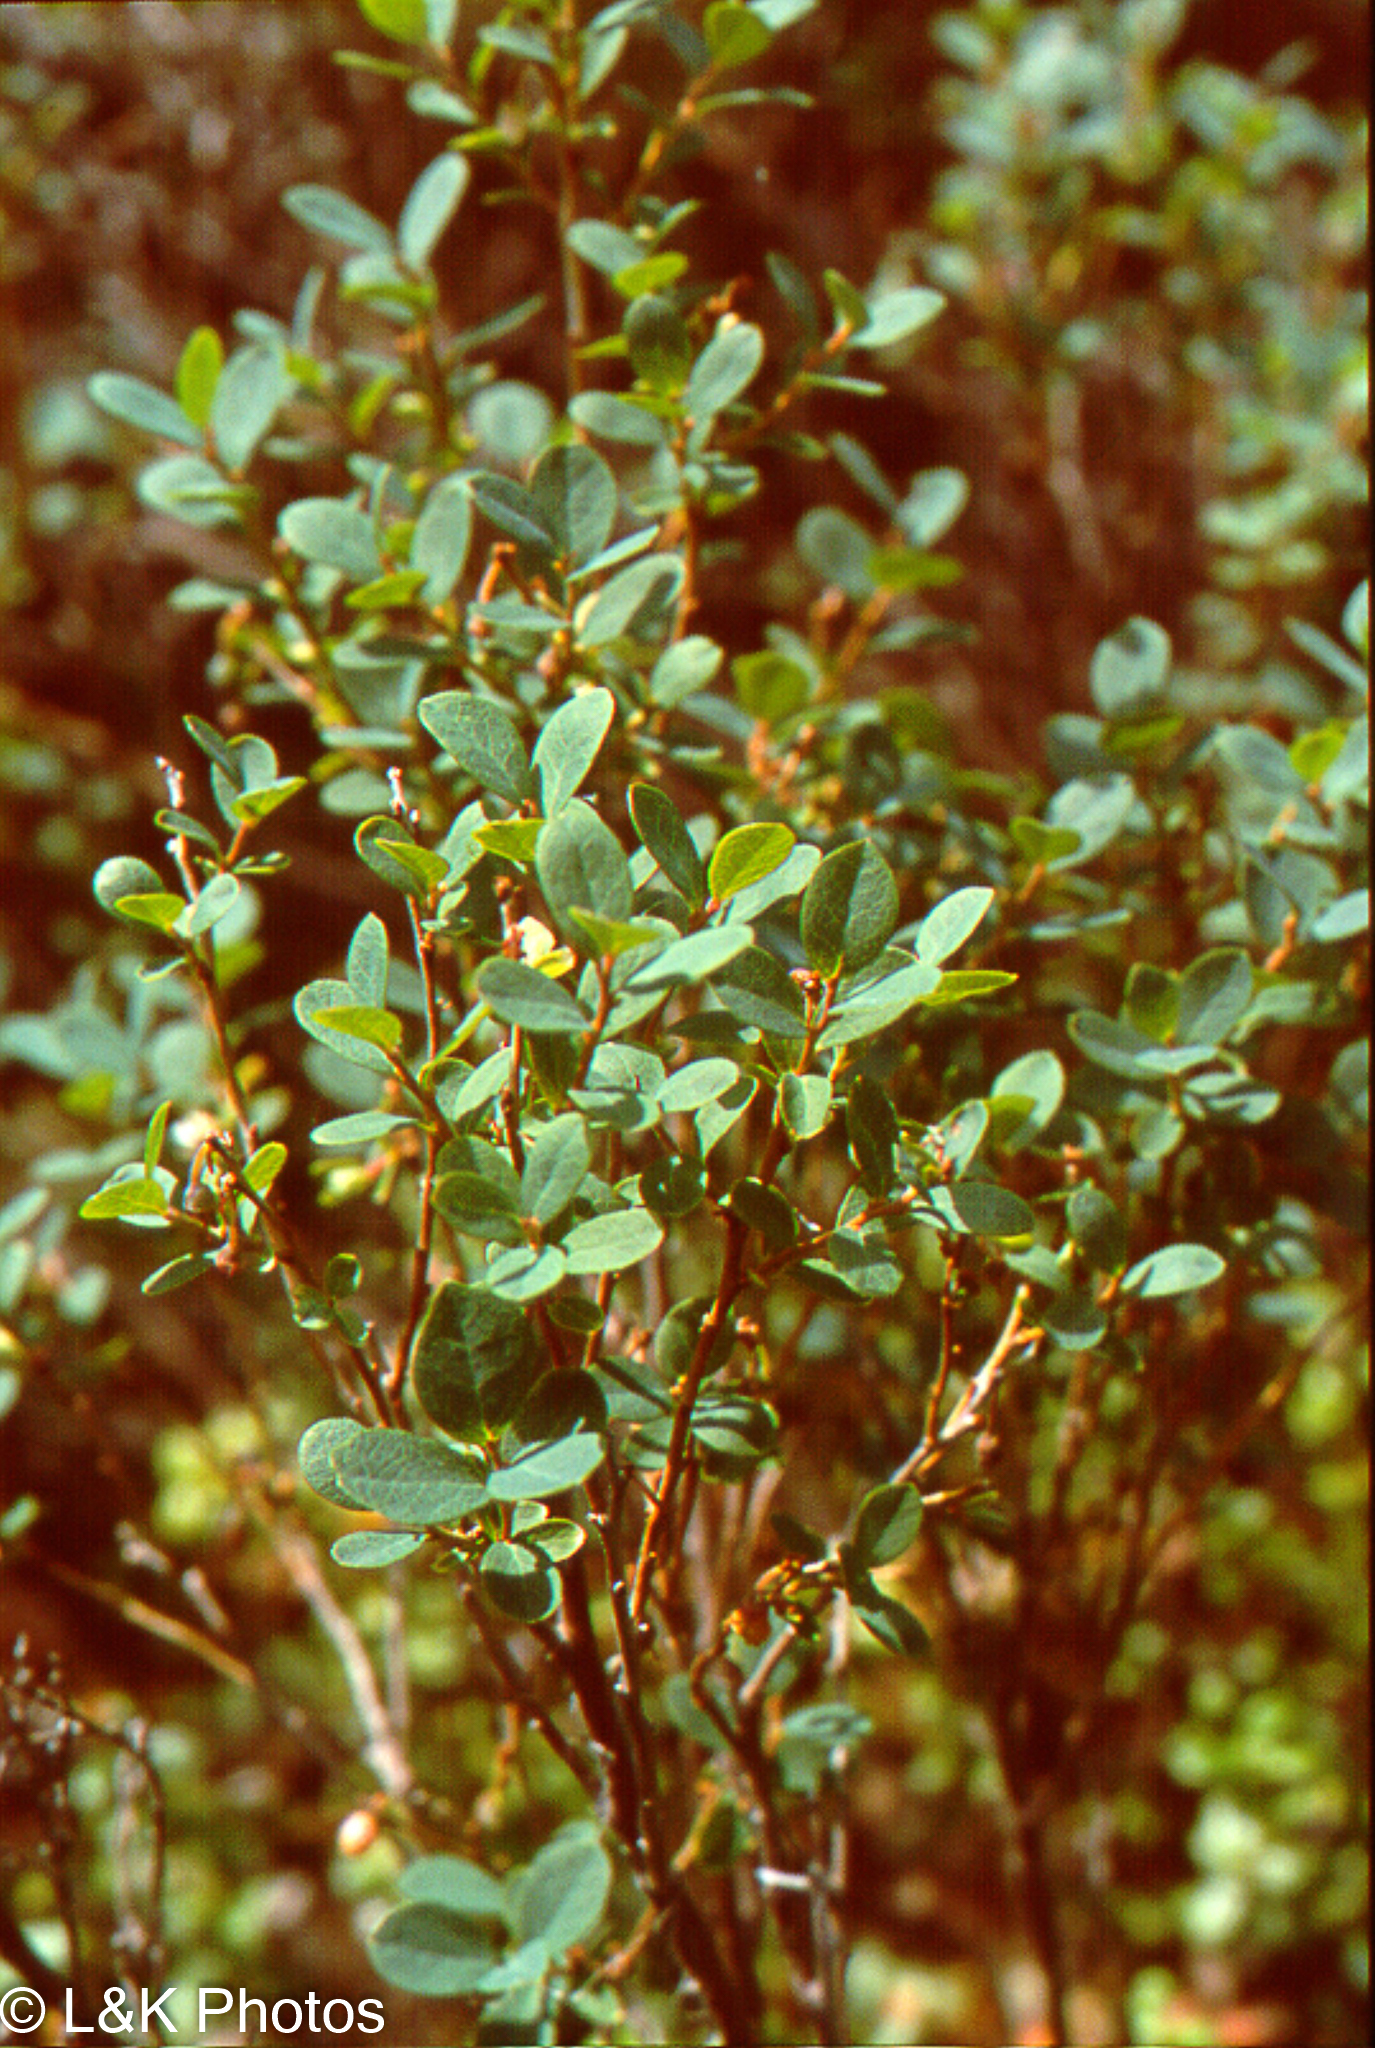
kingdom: Plantae
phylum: Tracheophyta
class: Magnoliopsida
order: Ericales
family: Ericaceae
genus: Vaccinium
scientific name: Vaccinium uliginosum
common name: Bog bilberry
